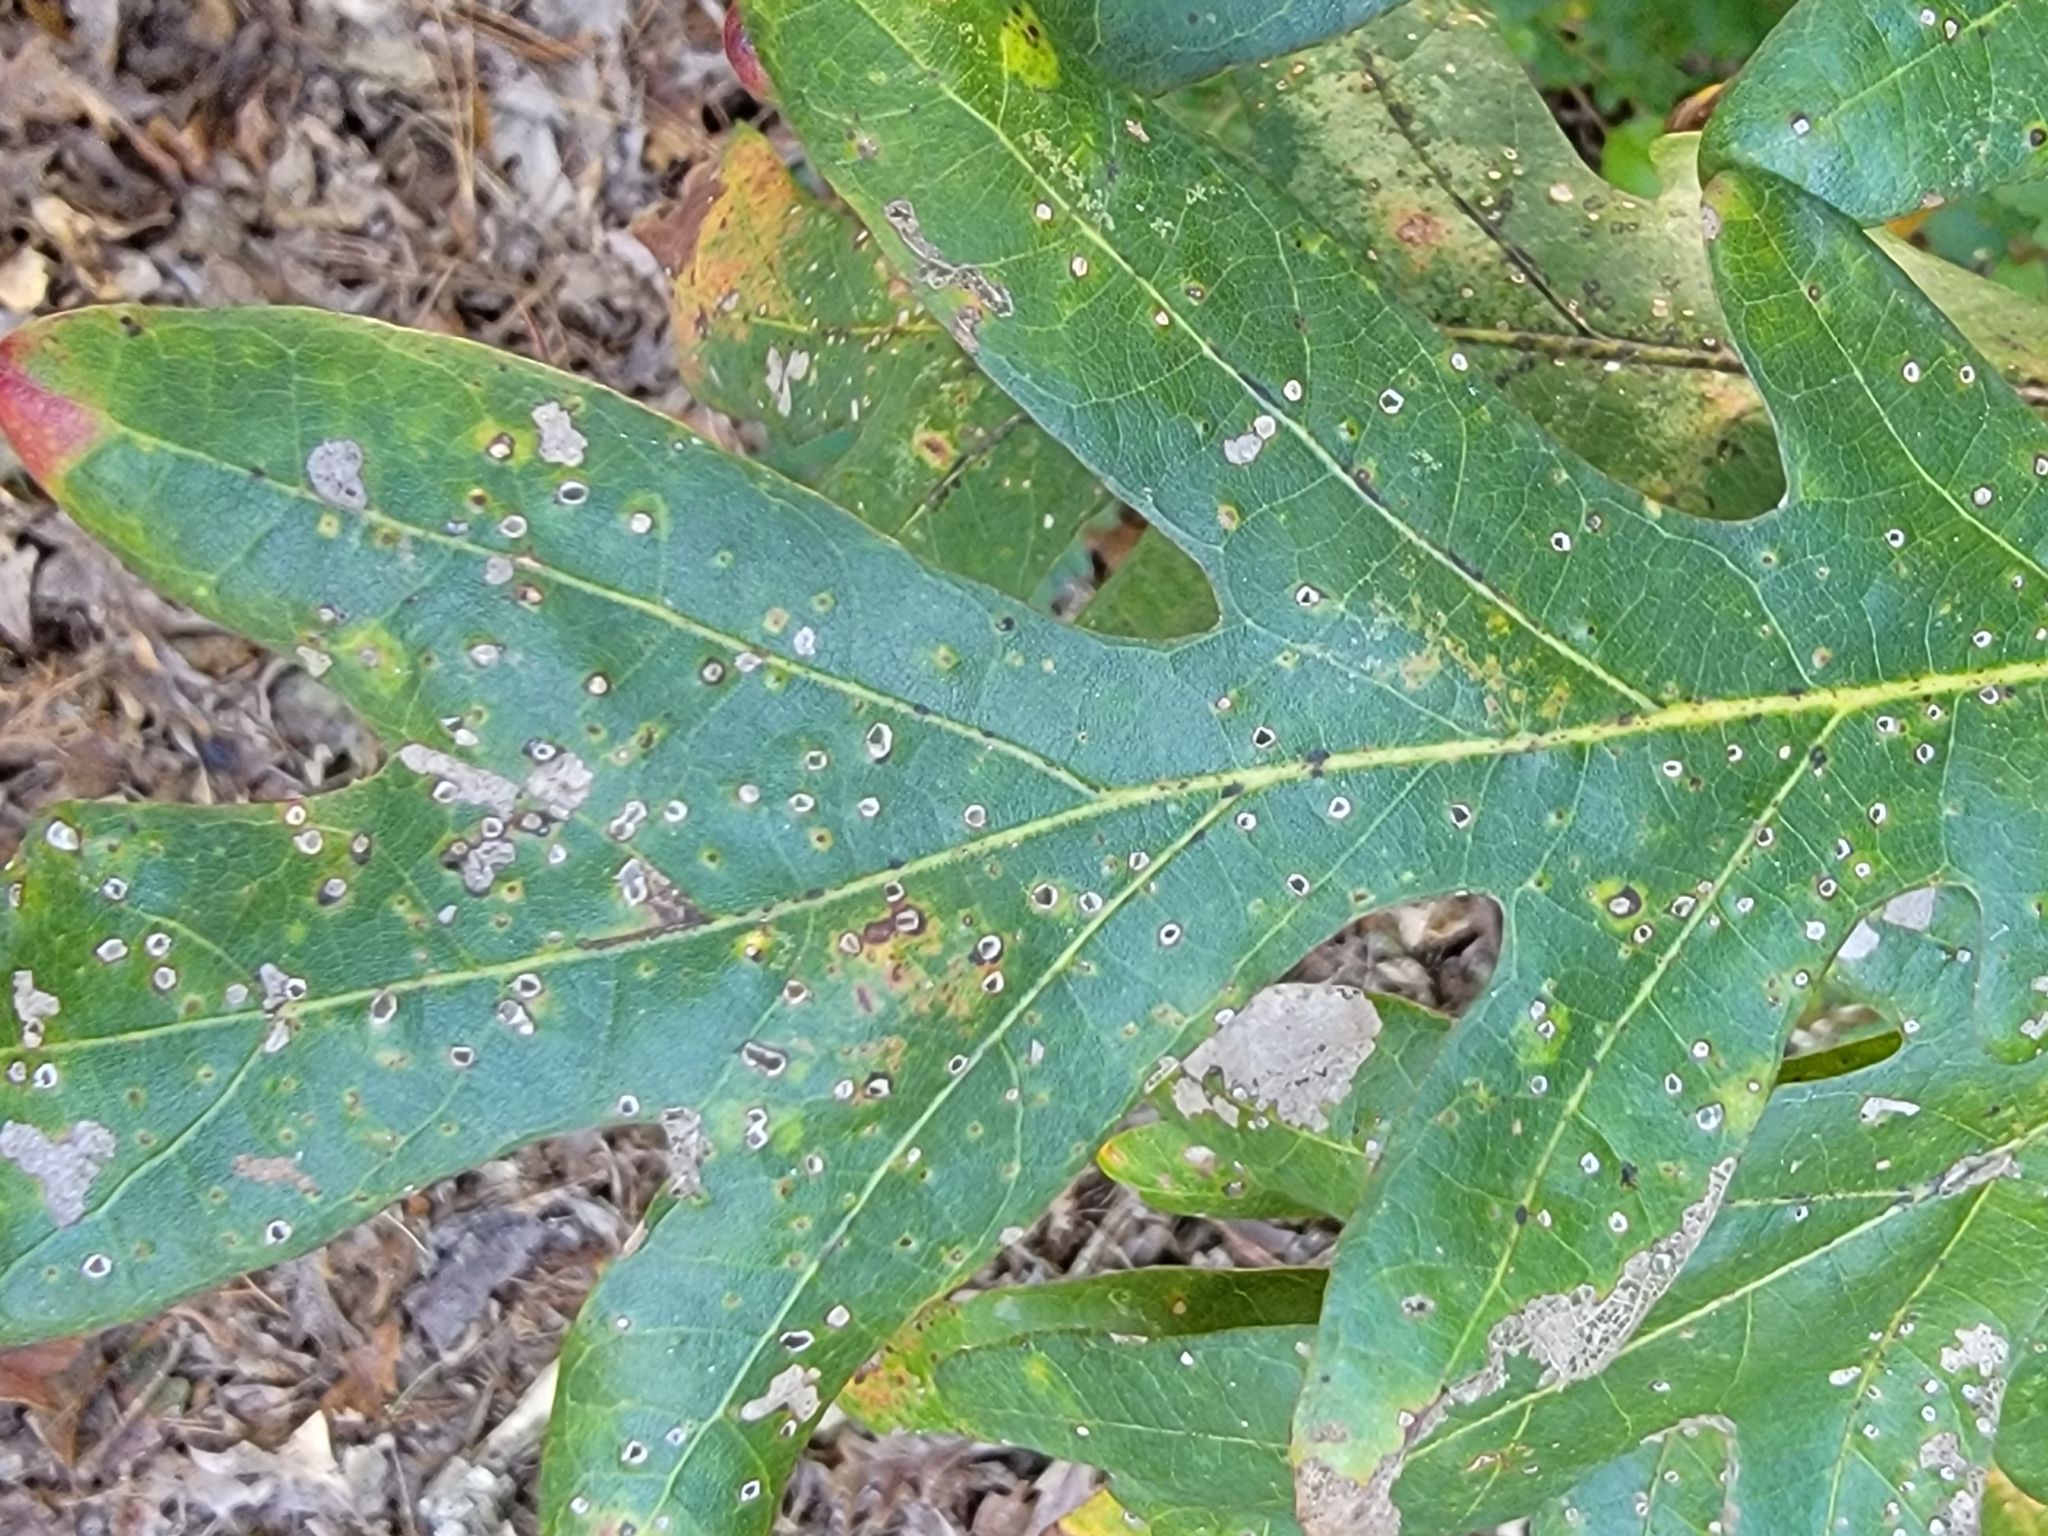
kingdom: Plantae
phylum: Tracheophyta
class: Magnoliopsida
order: Fagales
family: Fagaceae
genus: Quercus
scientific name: Quercus alba
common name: White oak
